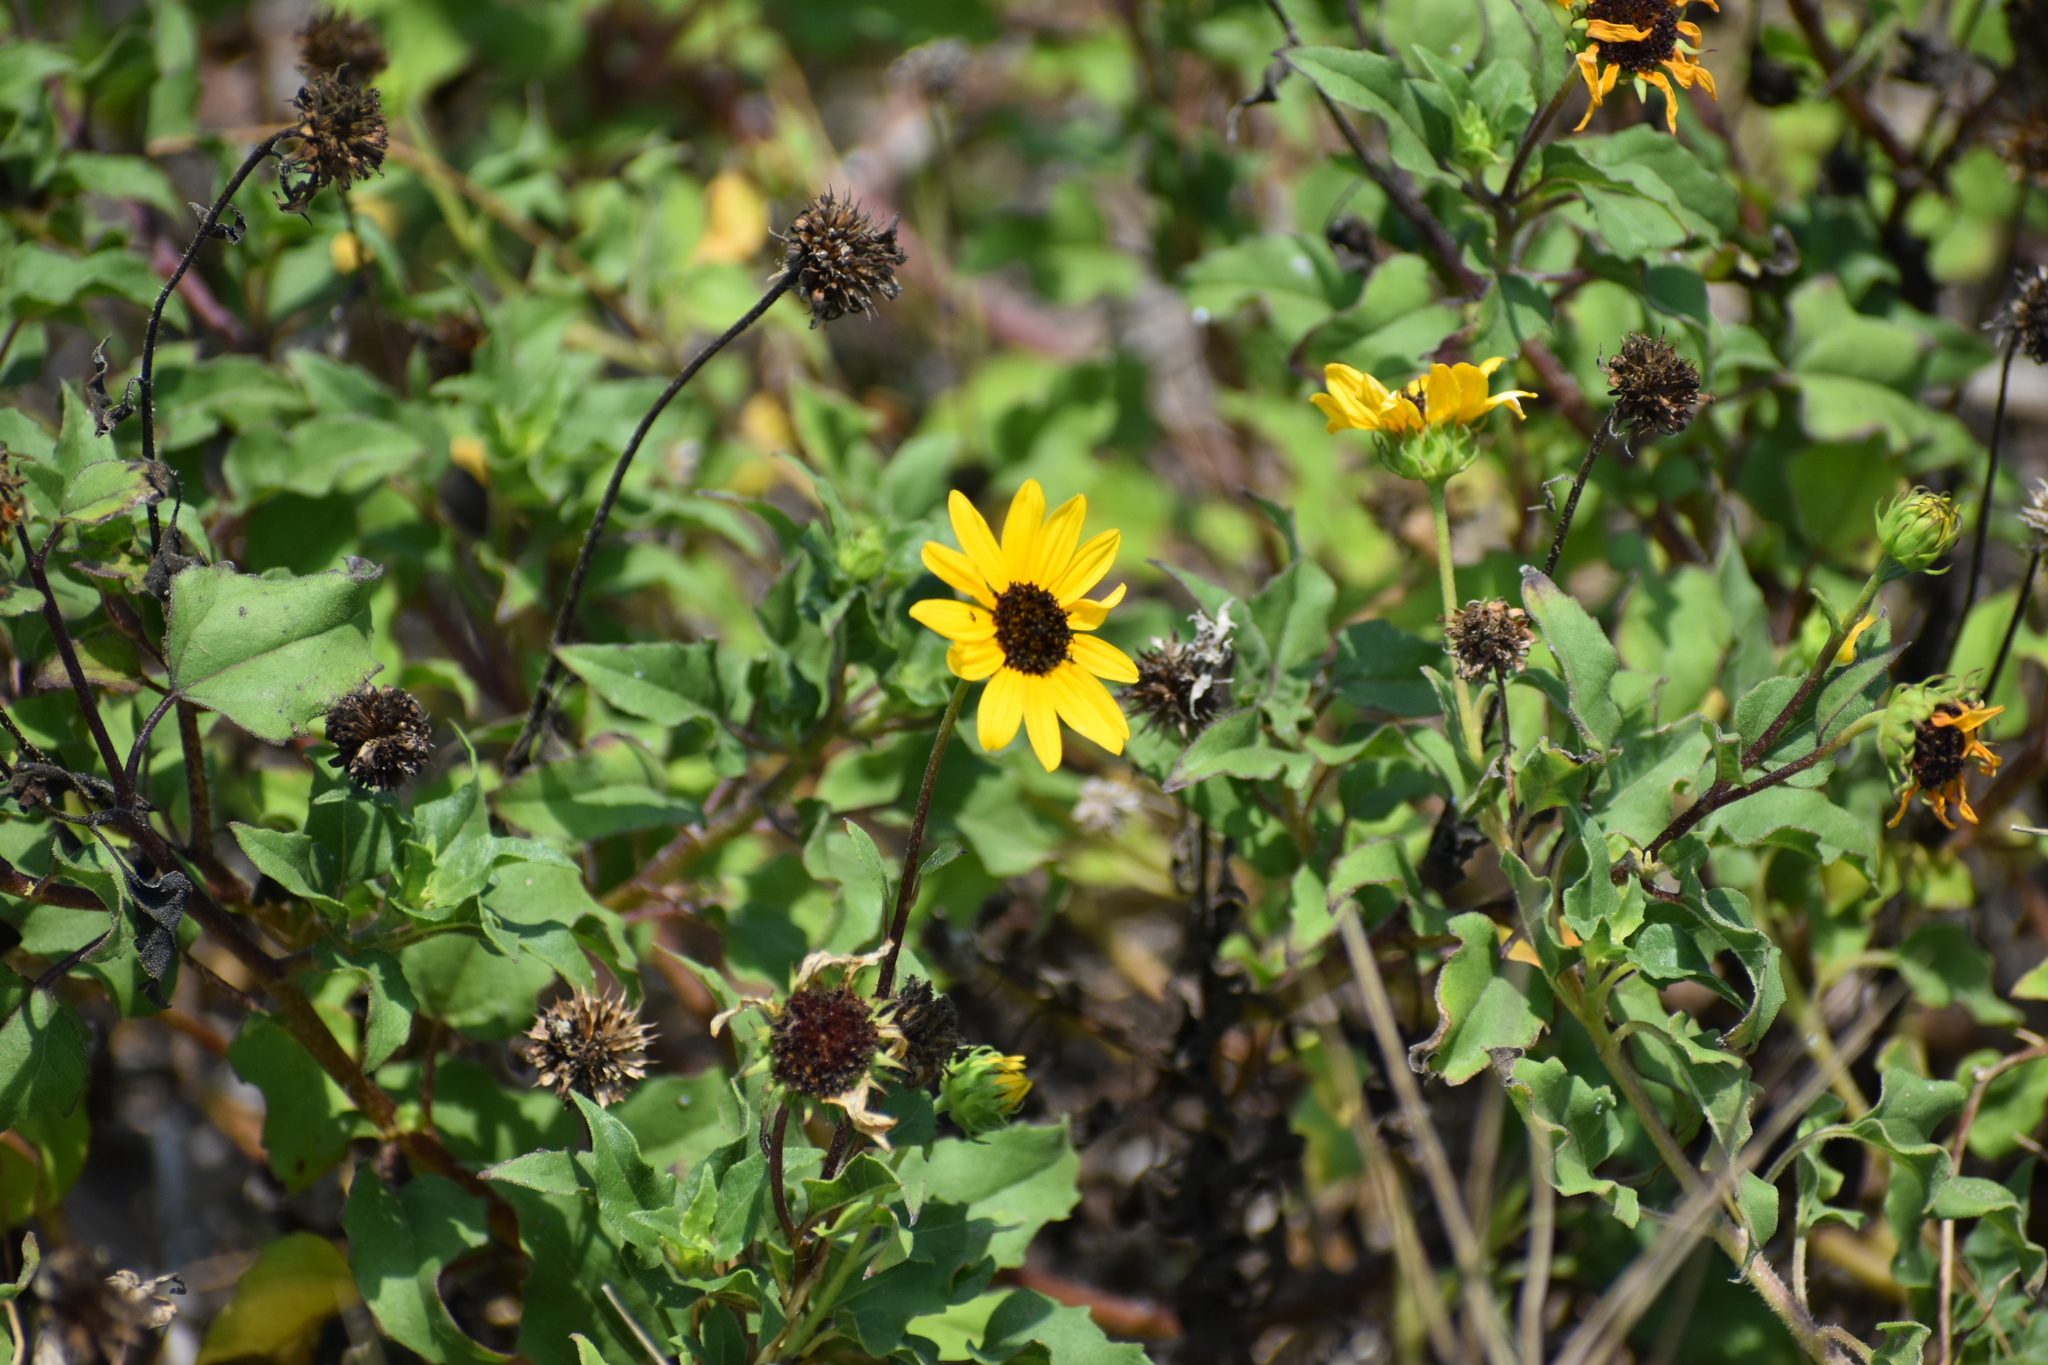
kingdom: Plantae
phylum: Tracheophyta
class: Magnoliopsida
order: Asterales
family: Asteraceae
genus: Helianthus
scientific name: Helianthus debilis
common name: Weak sunflower
